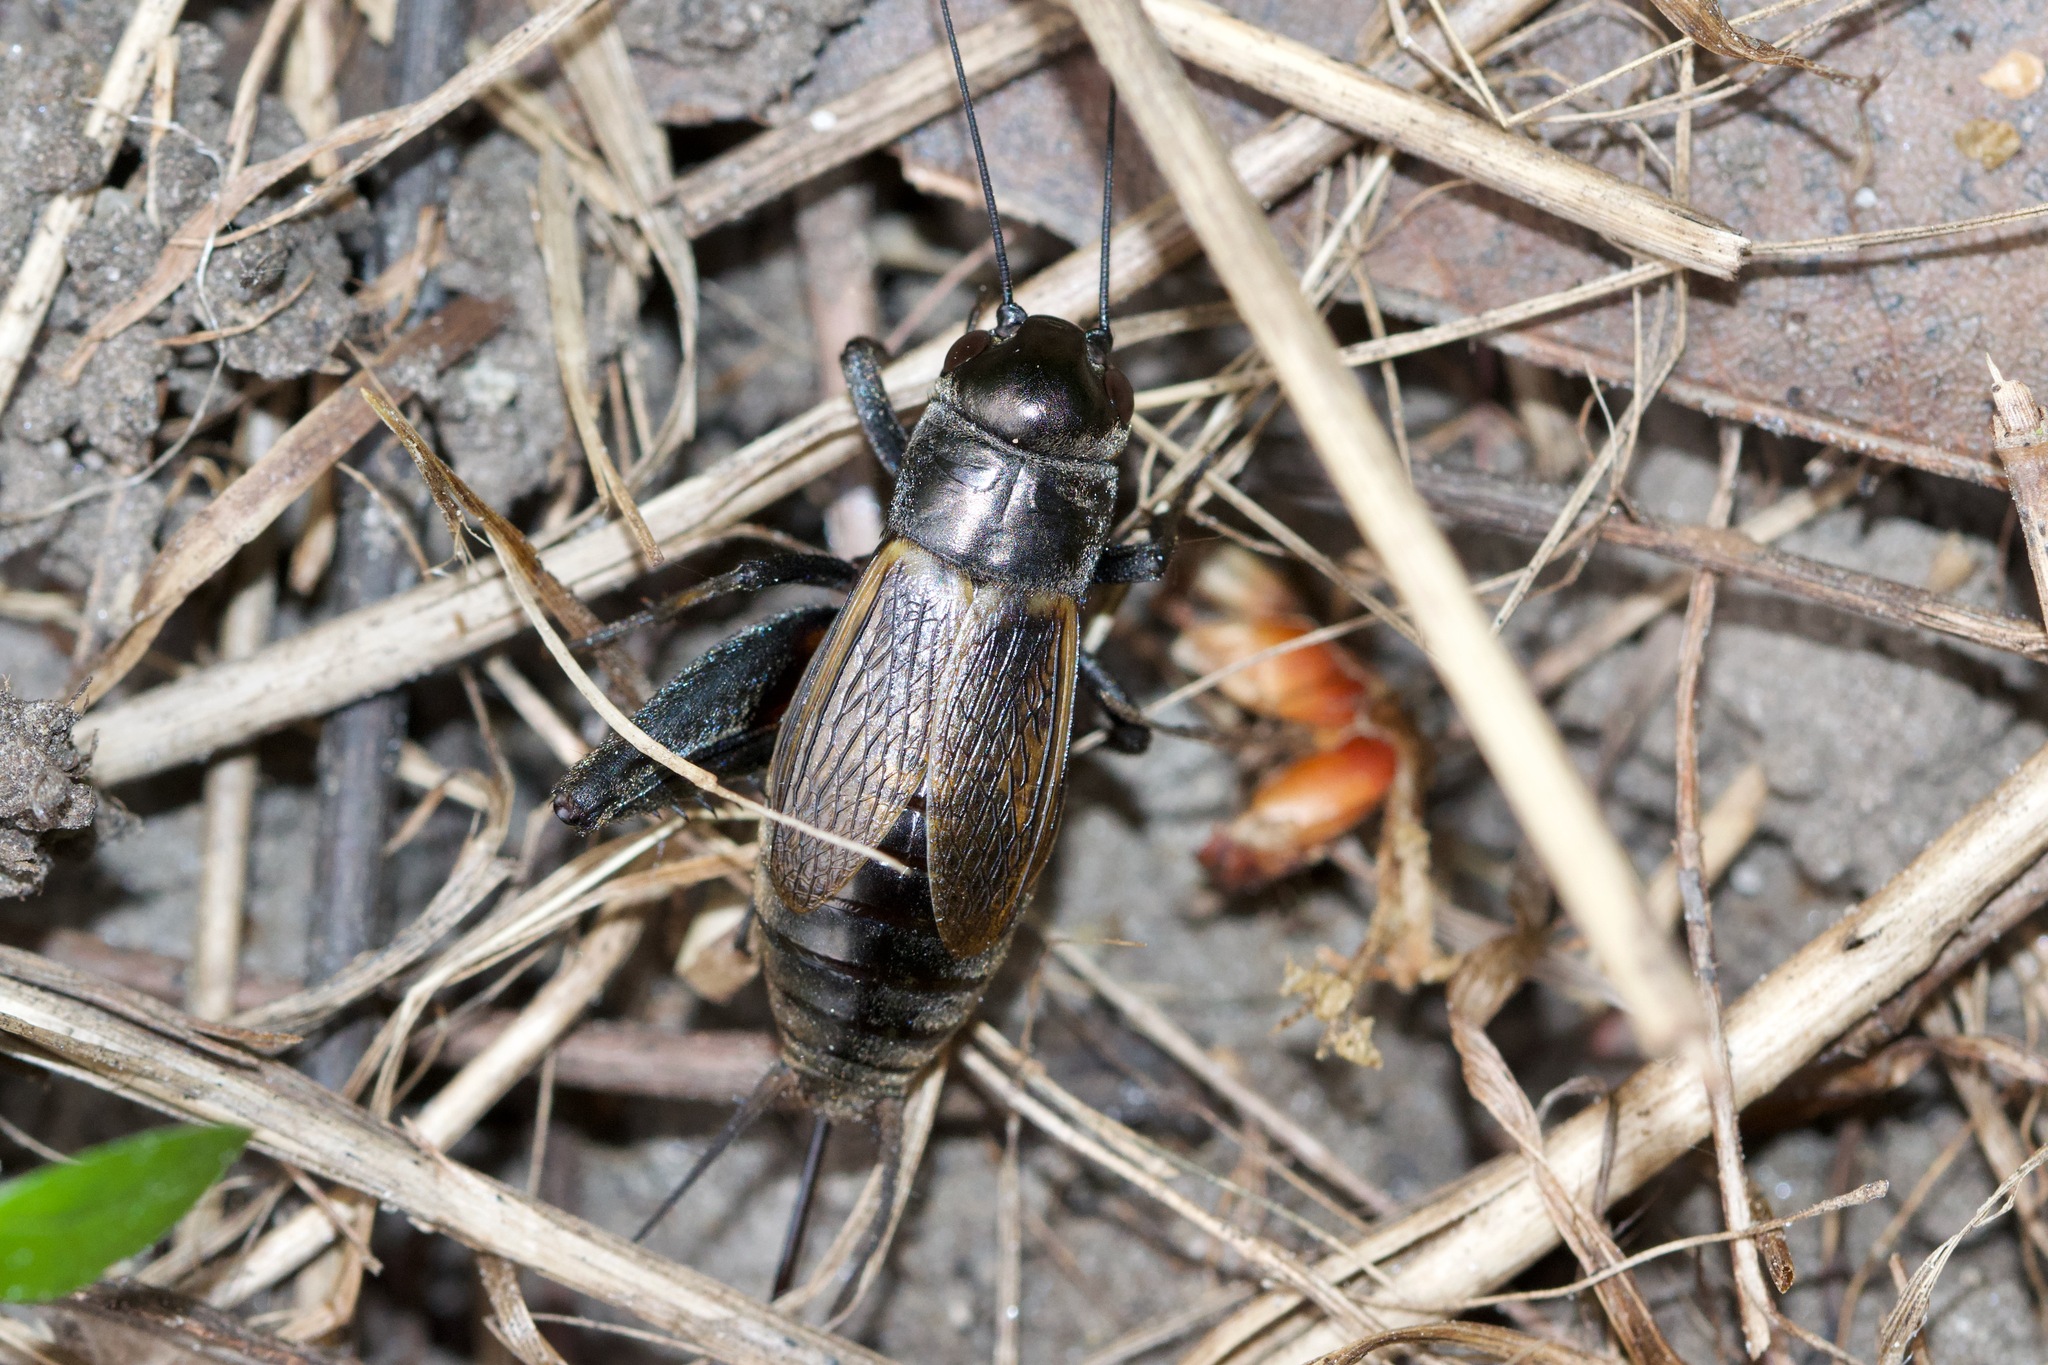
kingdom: Animalia
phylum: Arthropoda
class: Insecta
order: Orthoptera
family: Gryllidae
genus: Gryllus
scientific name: Gryllus veletis
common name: Spring field cricket
